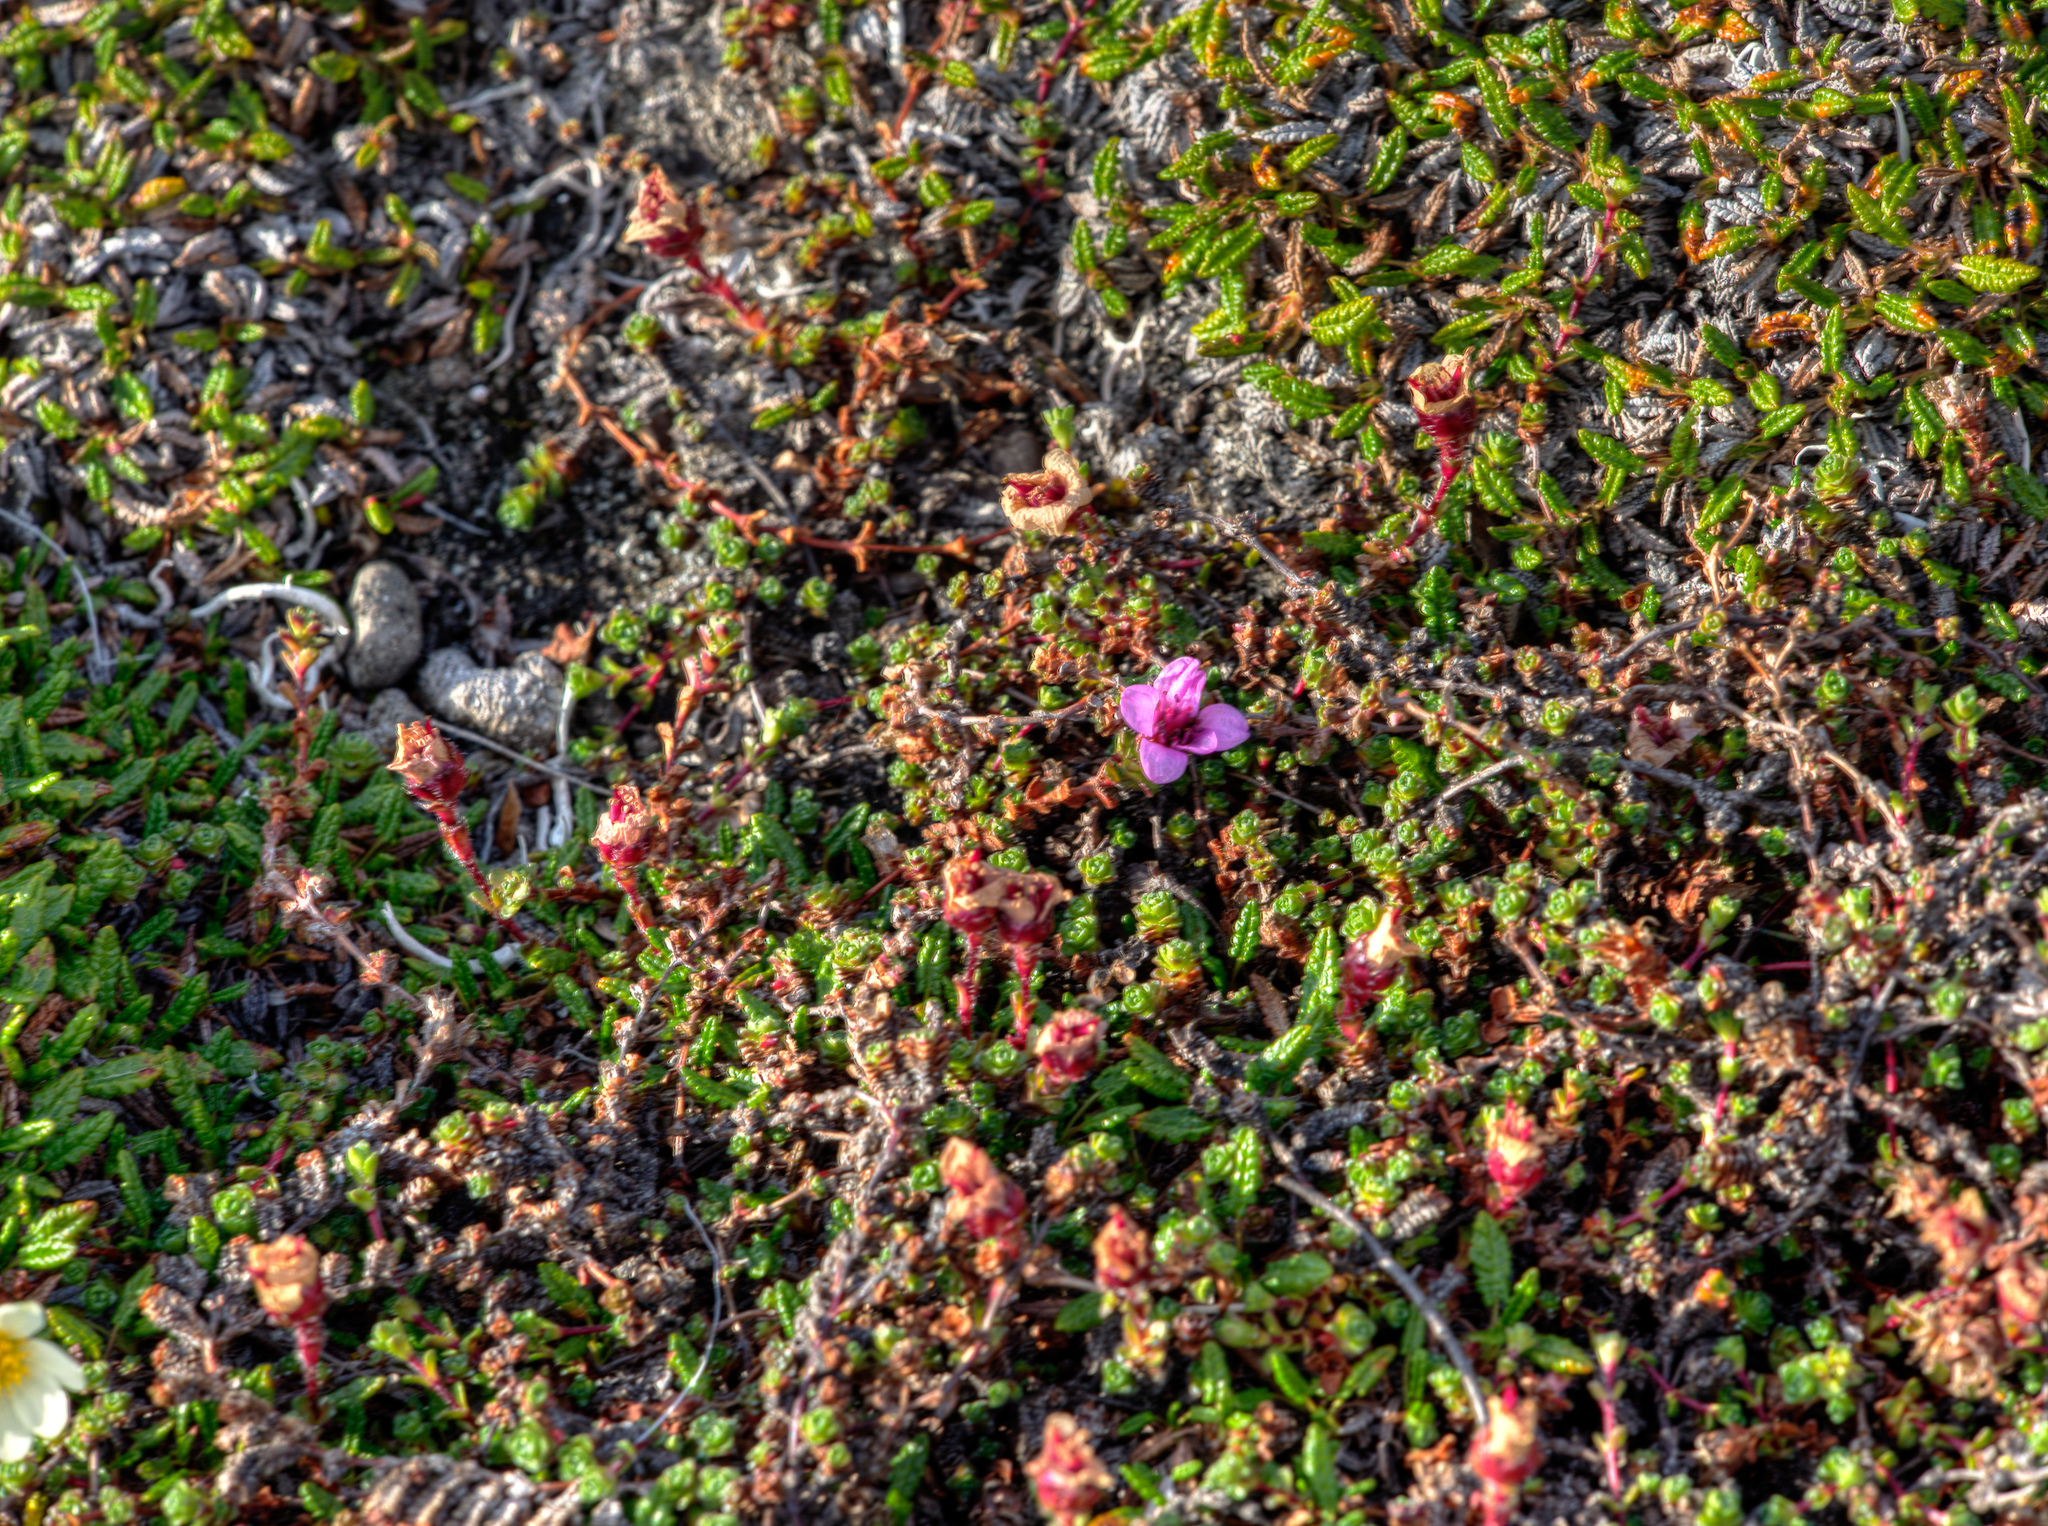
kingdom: Plantae
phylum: Tracheophyta
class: Magnoliopsida
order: Saxifragales
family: Saxifragaceae
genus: Saxifraga
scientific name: Saxifraga oppositifolia
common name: Purple saxifrage
